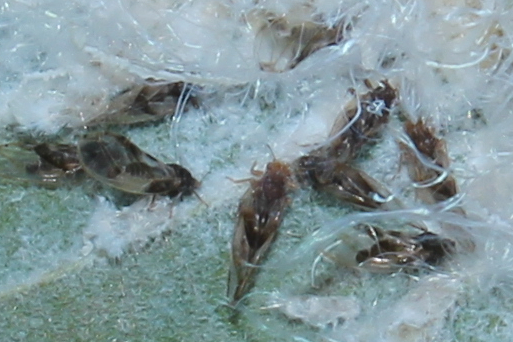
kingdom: Animalia
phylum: Arthropoda
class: Insecta
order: Hemiptera
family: Triozidae
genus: Phylloplecta
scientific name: Phylloplecta tripunctata
